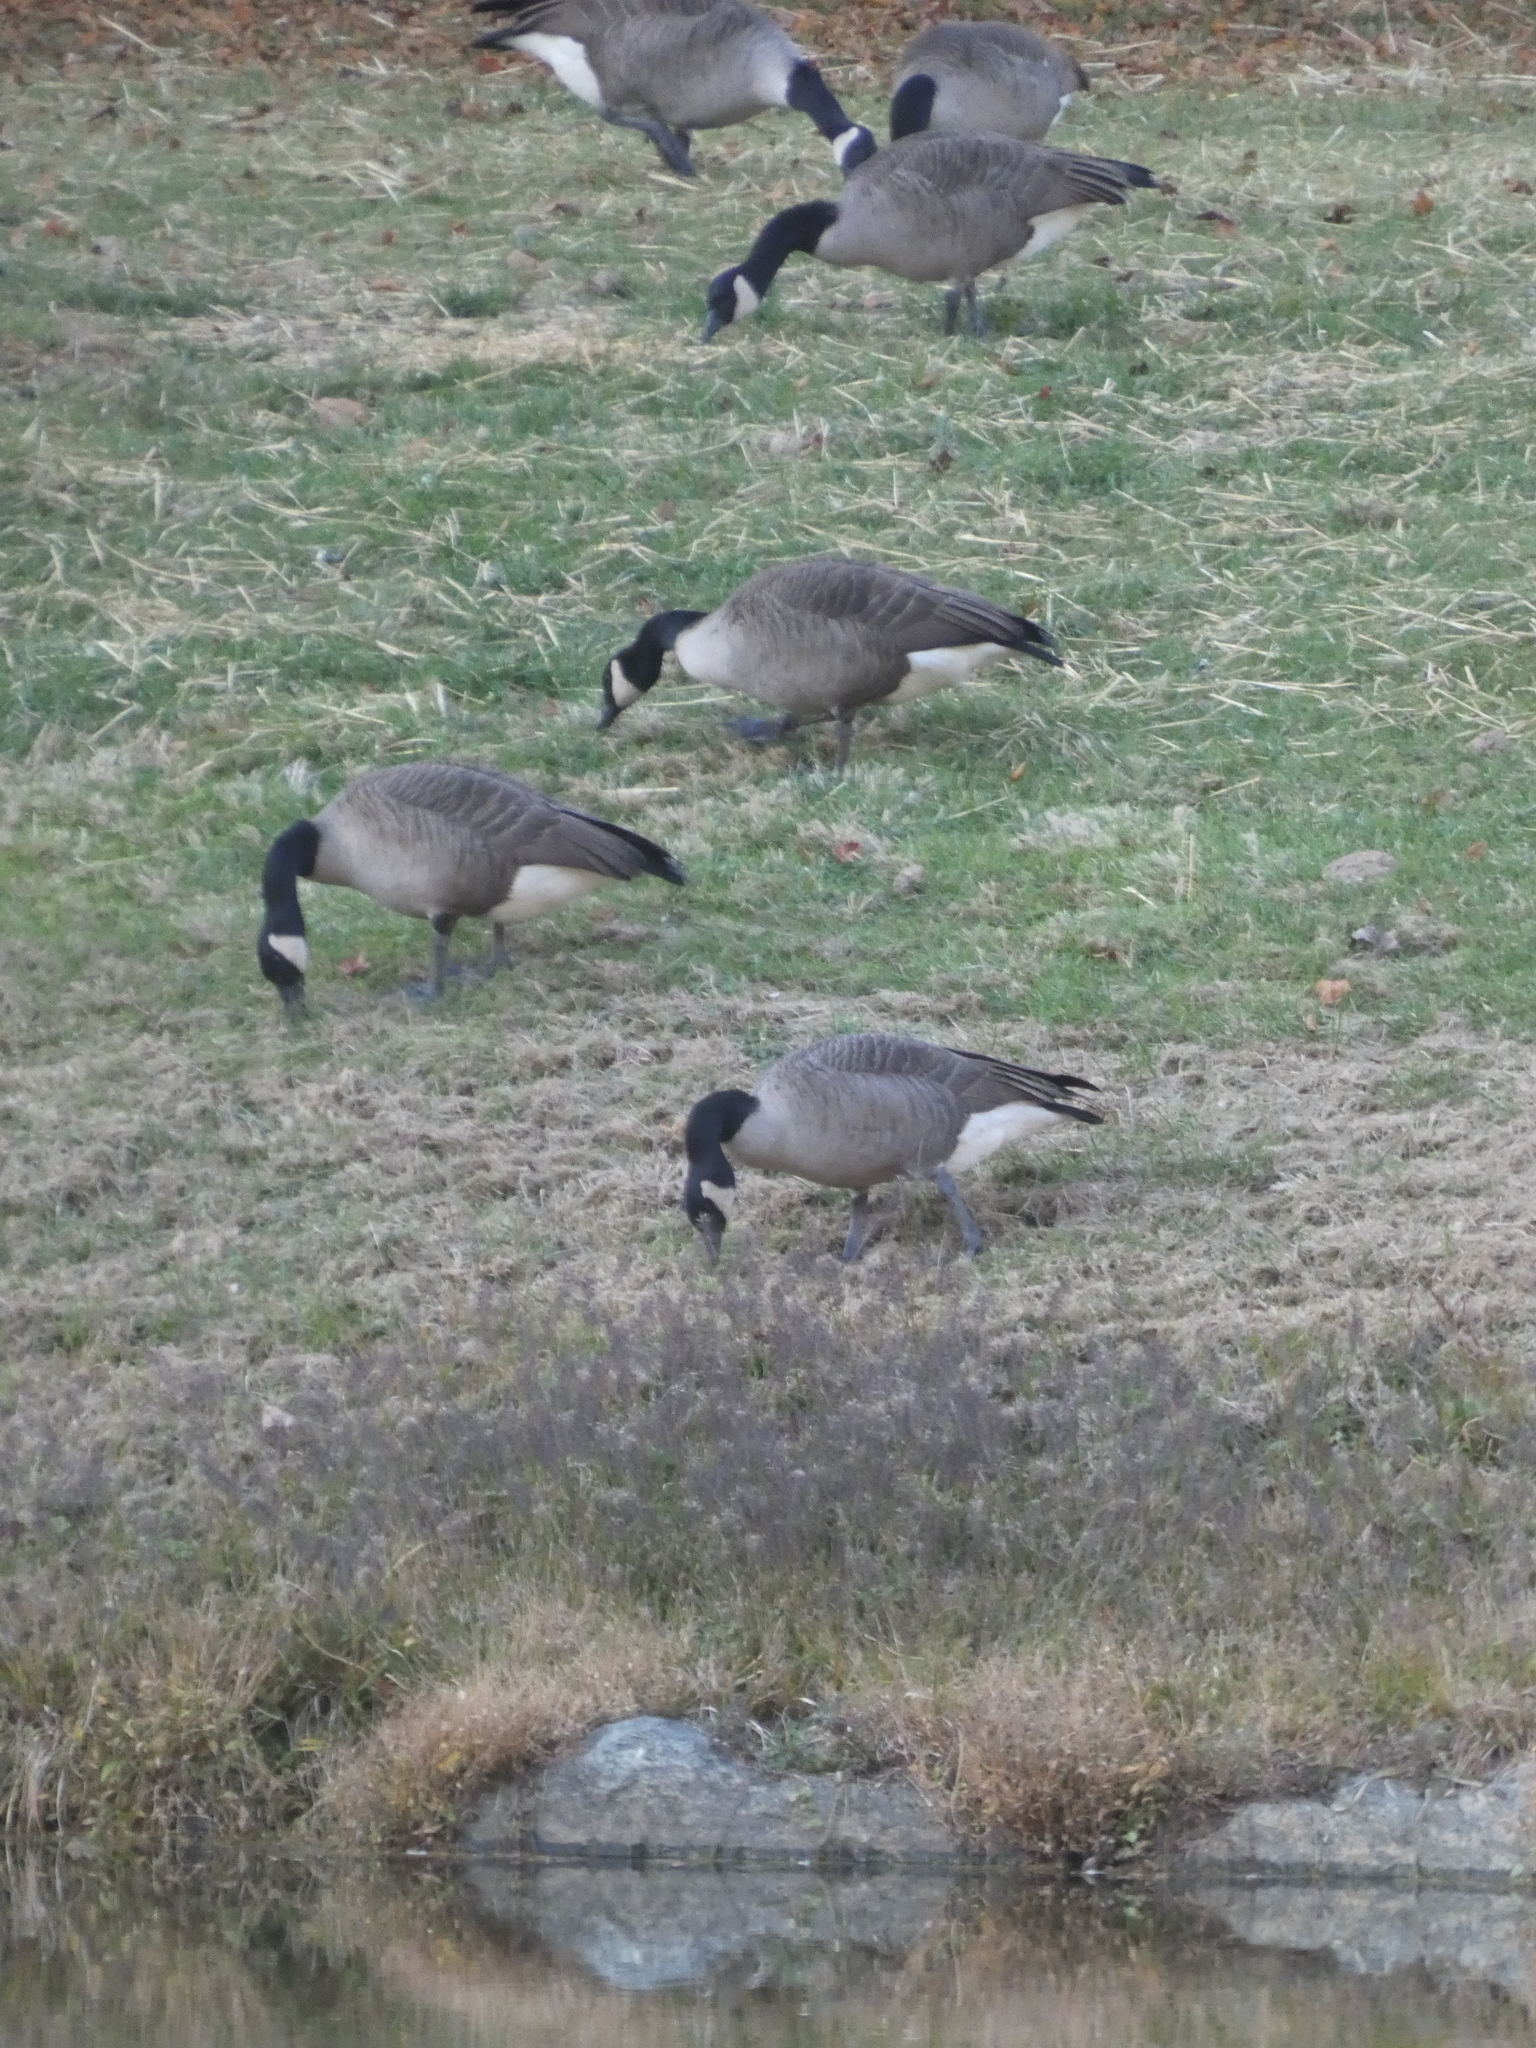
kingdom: Animalia
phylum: Chordata
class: Aves
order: Anseriformes
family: Anatidae
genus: Branta
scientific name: Branta canadensis
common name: Canada goose
